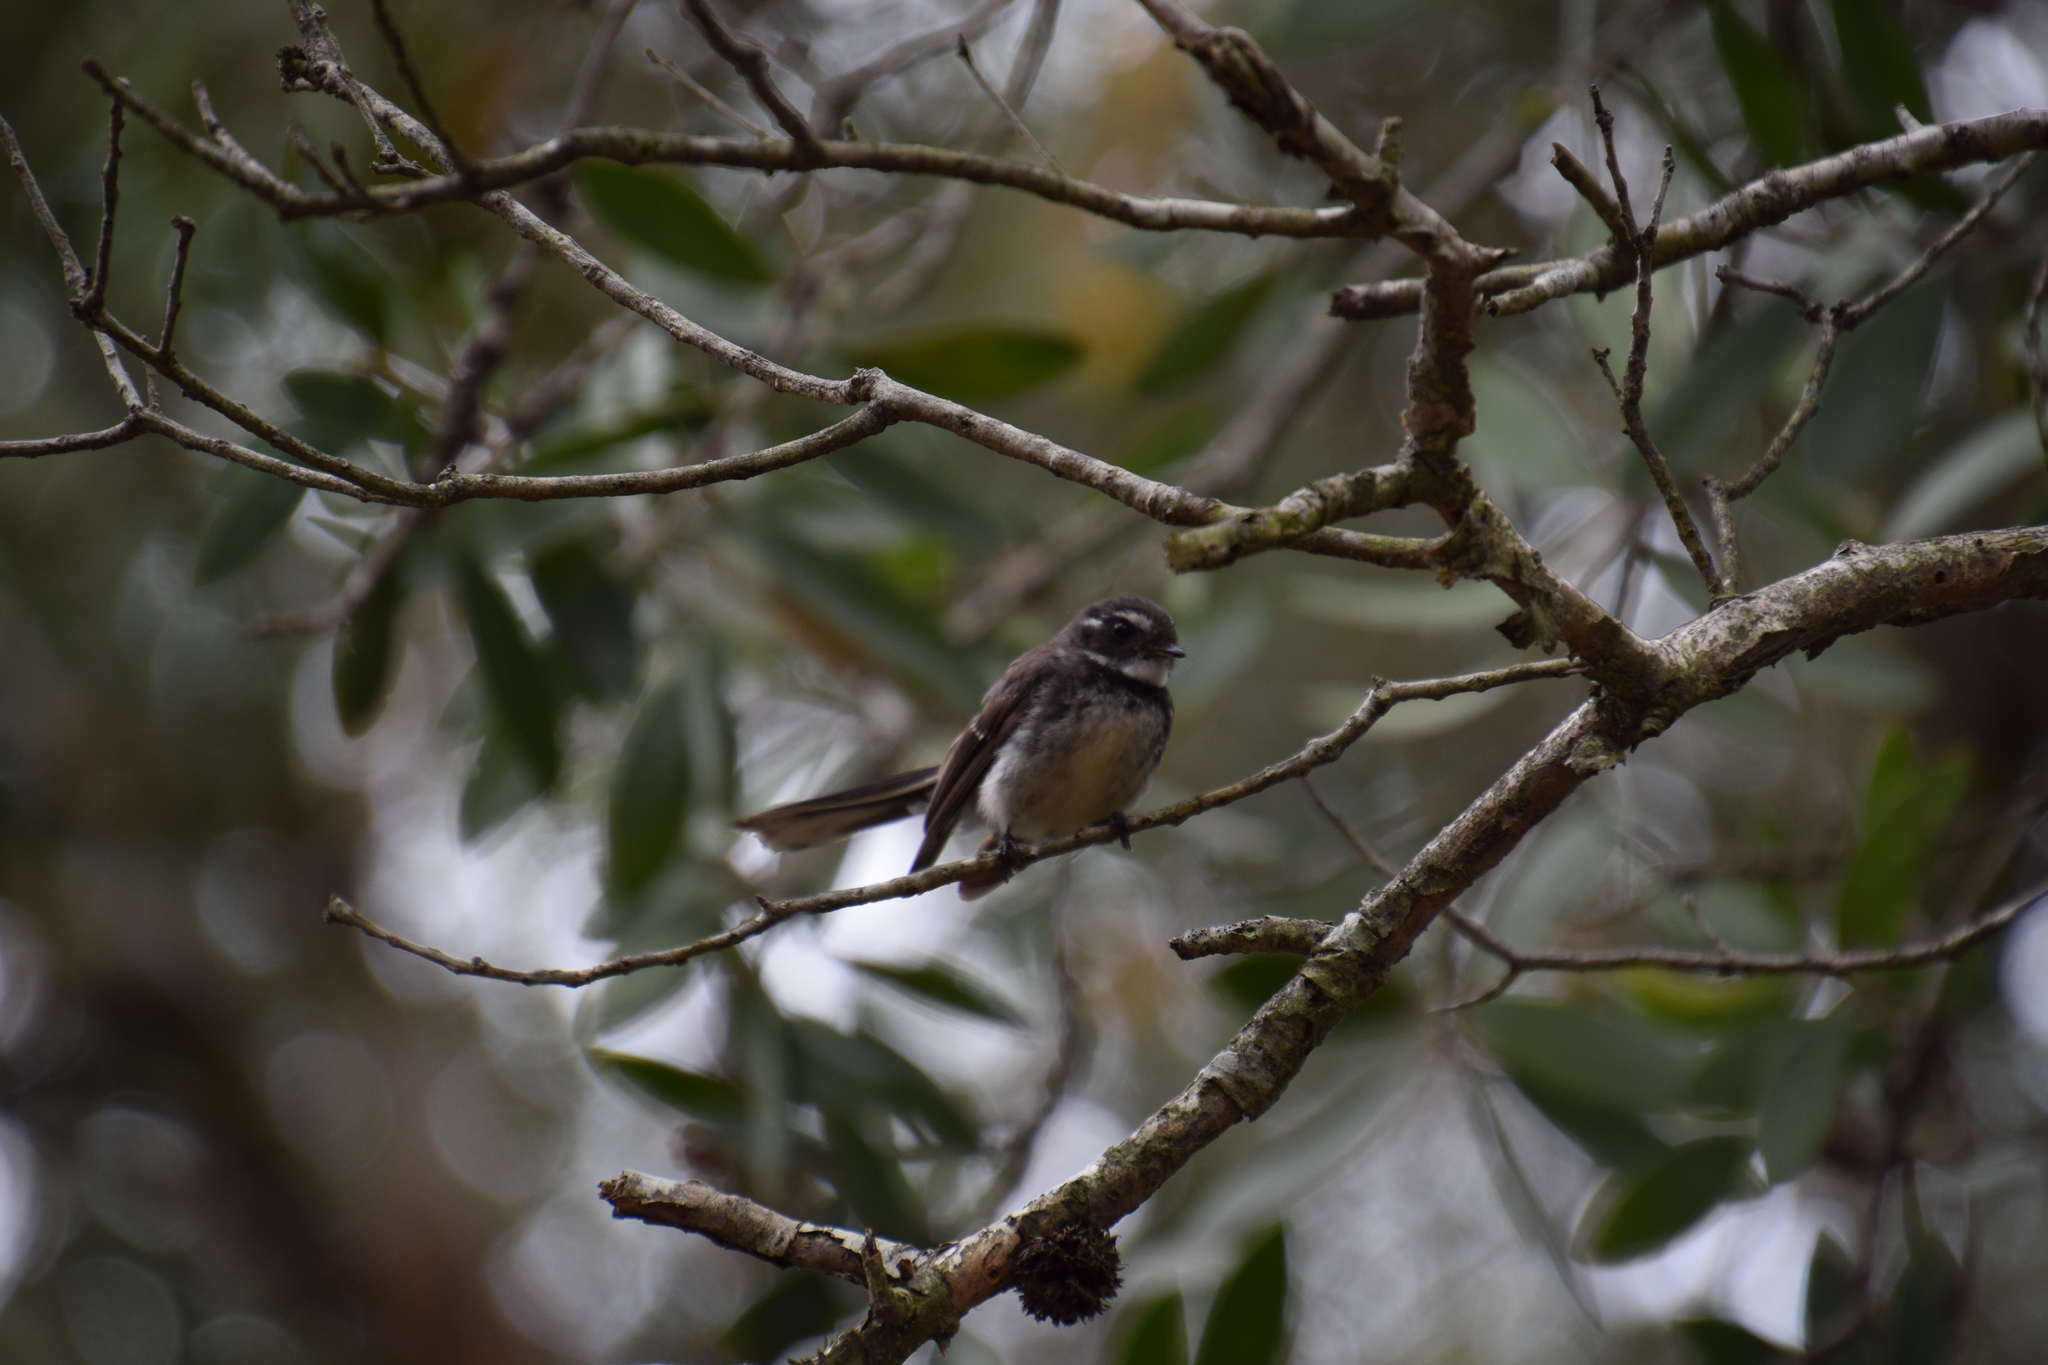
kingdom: Animalia
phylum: Chordata
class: Aves
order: Passeriformes
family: Rhipiduridae
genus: Rhipidura
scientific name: Rhipidura albiscapa
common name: Grey fantail
